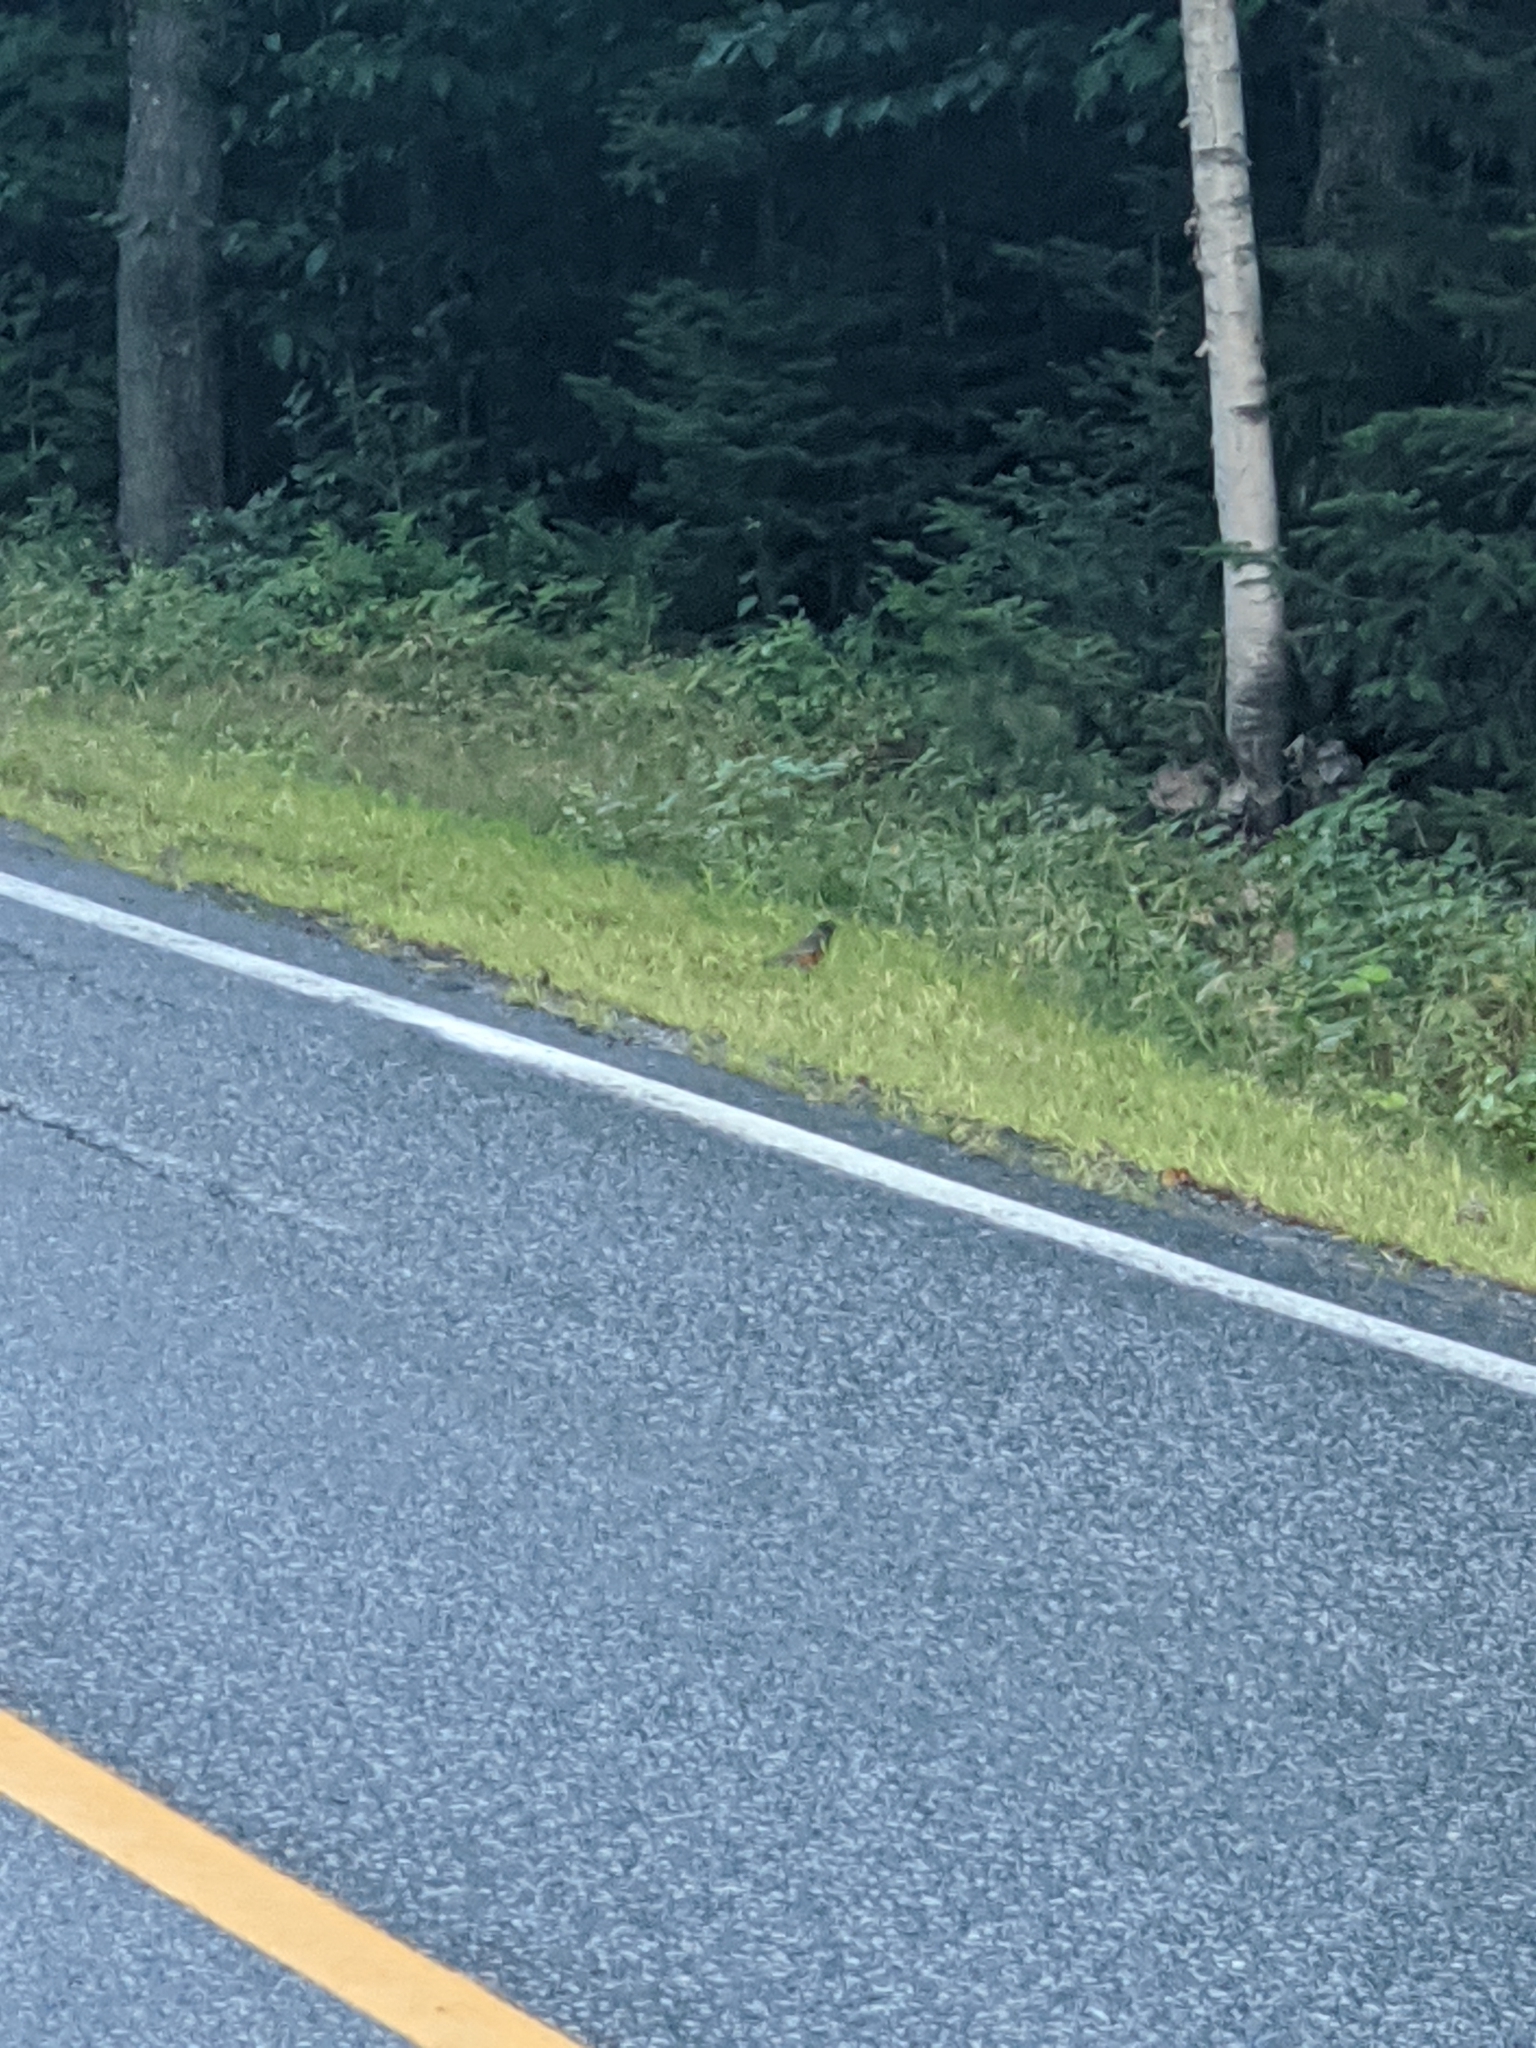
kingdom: Animalia
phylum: Chordata
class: Aves
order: Passeriformes
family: Turdidae
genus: Turdus
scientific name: Turdus migratorius
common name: American robin
